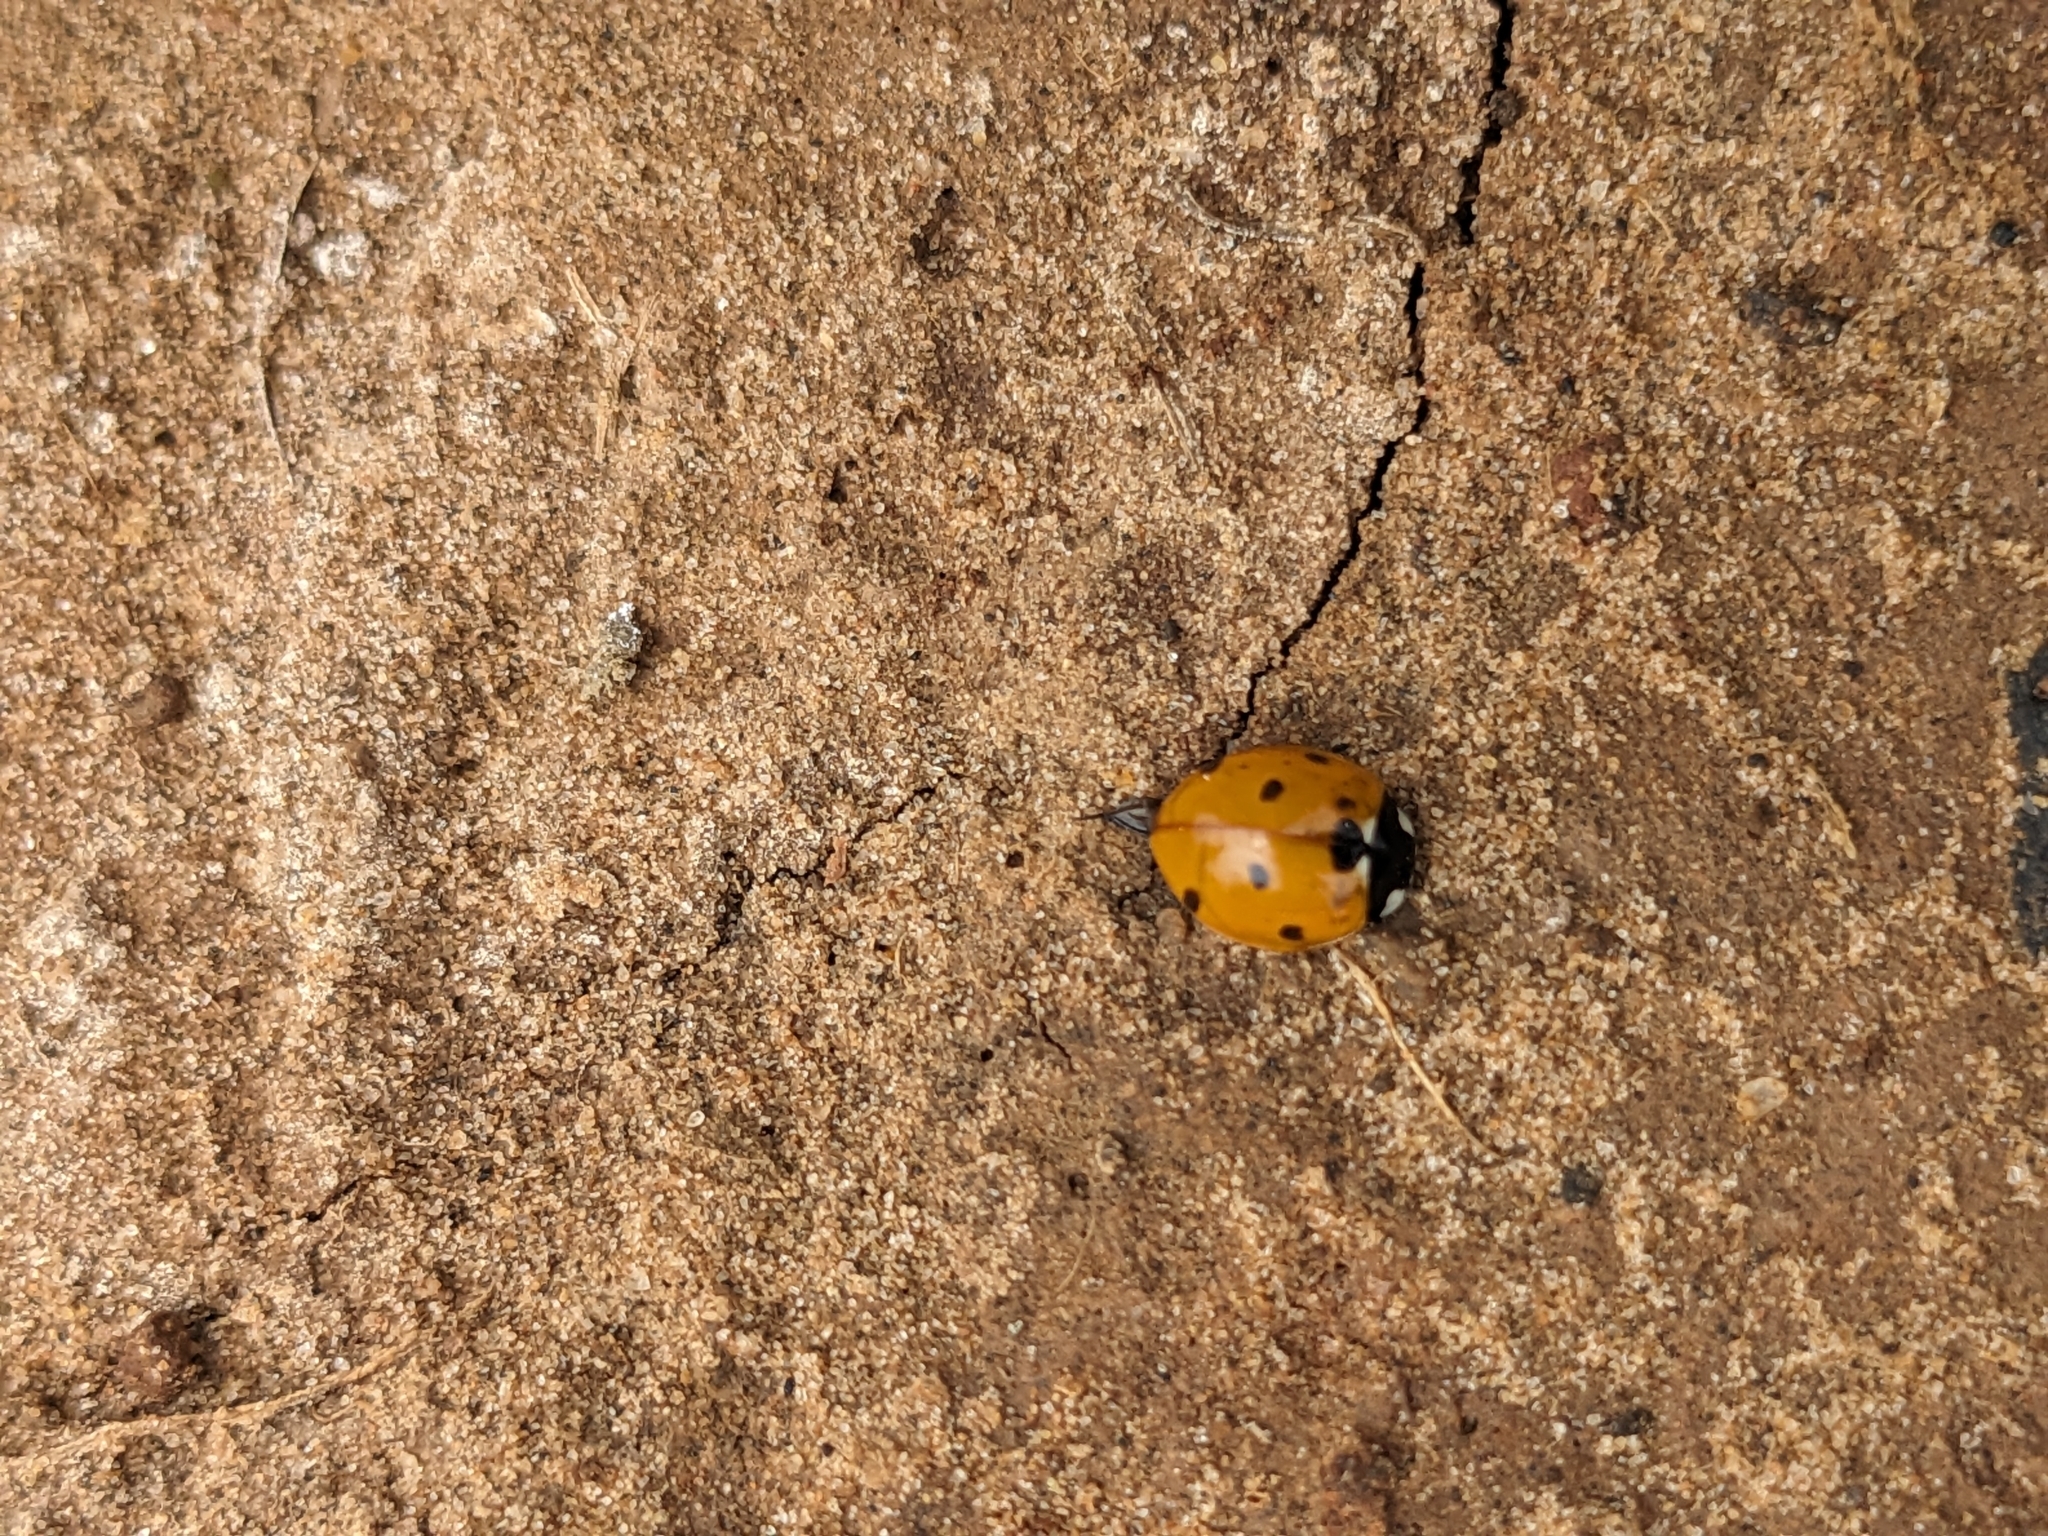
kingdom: Animalia
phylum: Arthropoda
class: Insecta
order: Coleoptera
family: Coccinellidae
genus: Coccinella
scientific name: Coccinella septempunctata
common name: Sevenspotted lady beetle
